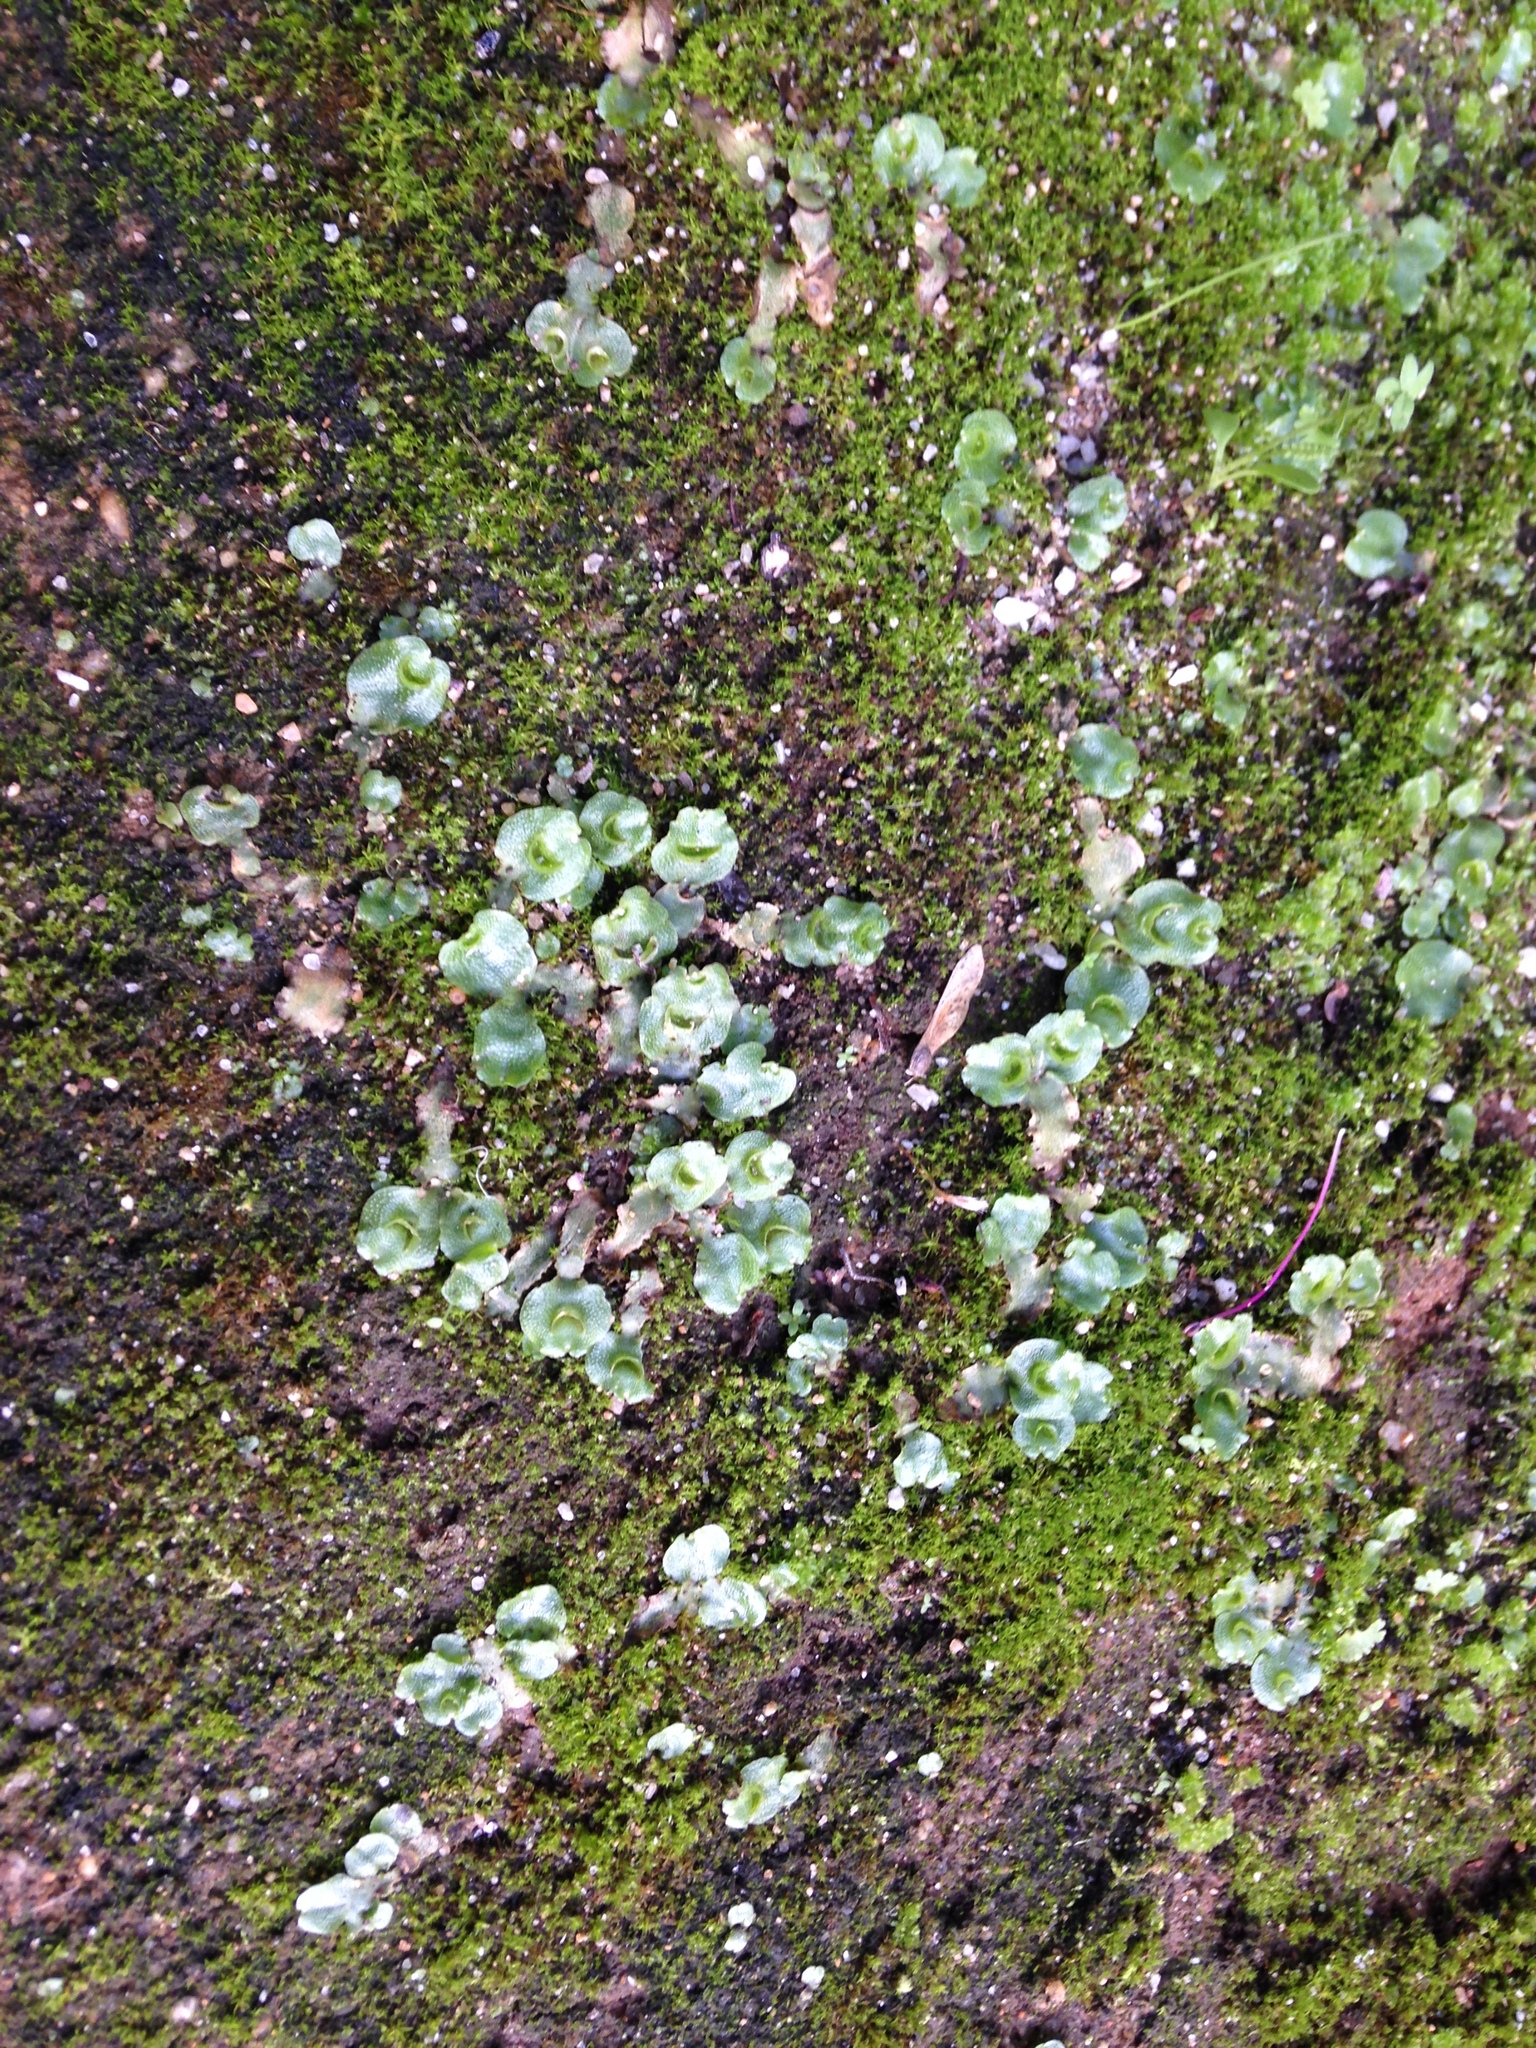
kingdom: Plantae
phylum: Marchantiophyta
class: Marchantiopsida
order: Lunulariales
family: Lunulariaceae
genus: Lunularia
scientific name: Lunularia cruciata
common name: Crescent-cup liverwort
